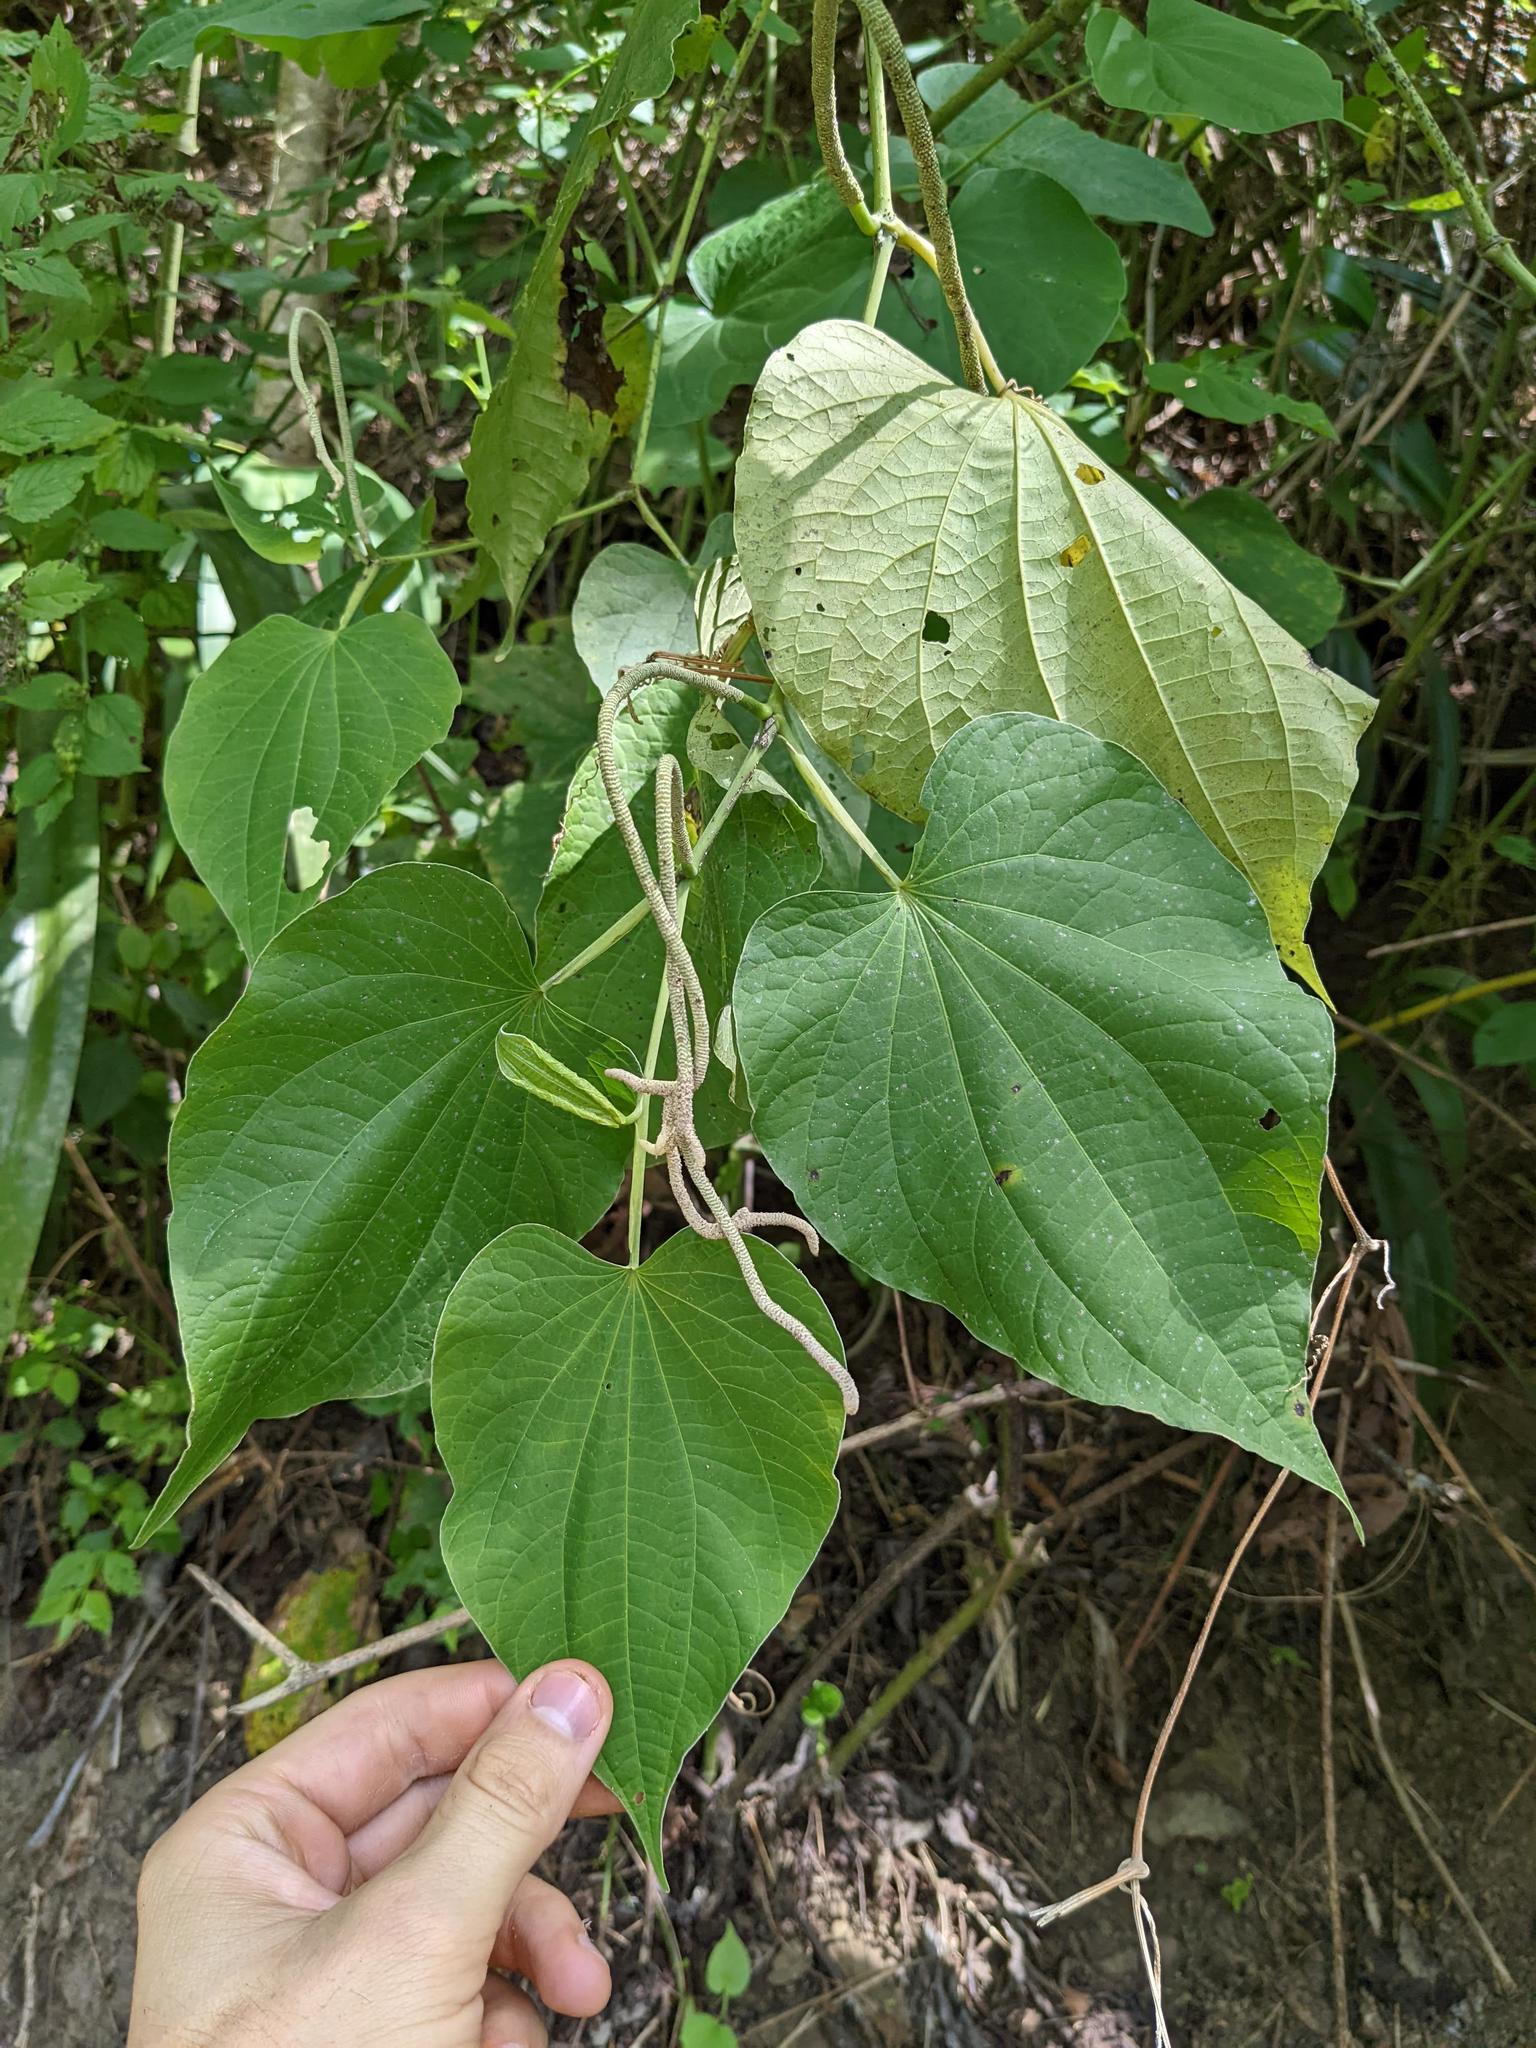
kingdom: Plantae
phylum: Tracheophyta
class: Magnoliopsida
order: Piperales
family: Piperaceae
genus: Piper
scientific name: Piper marginatum
